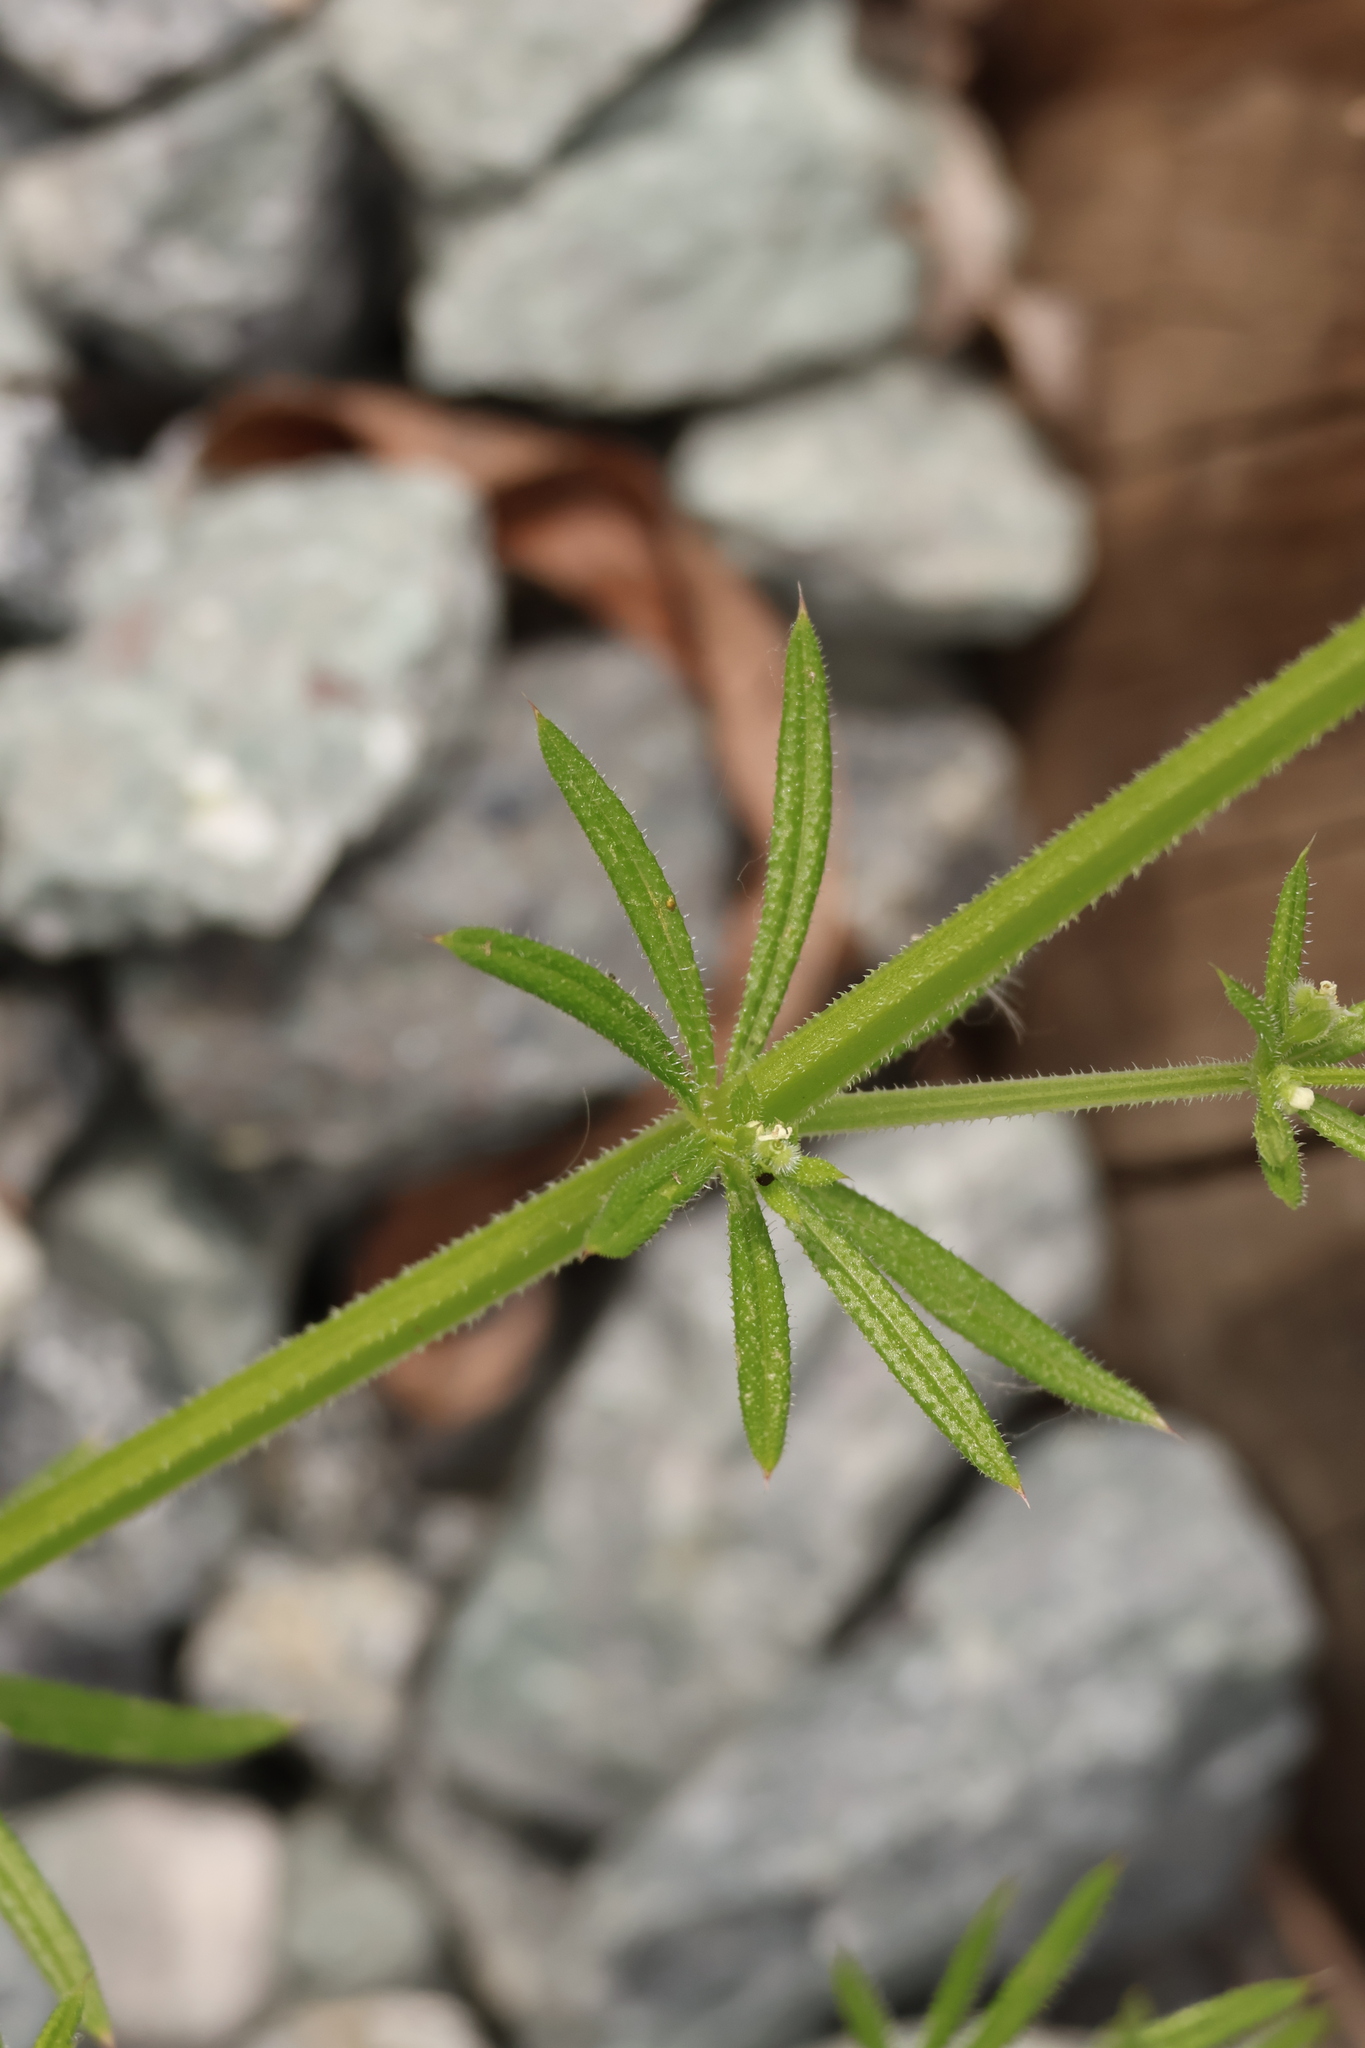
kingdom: Plantae
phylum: Tracheophyta
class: Magnoliopsida
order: Gentianales
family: Rubiaceae
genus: Galium
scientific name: Galium aparine
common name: Cleavers
